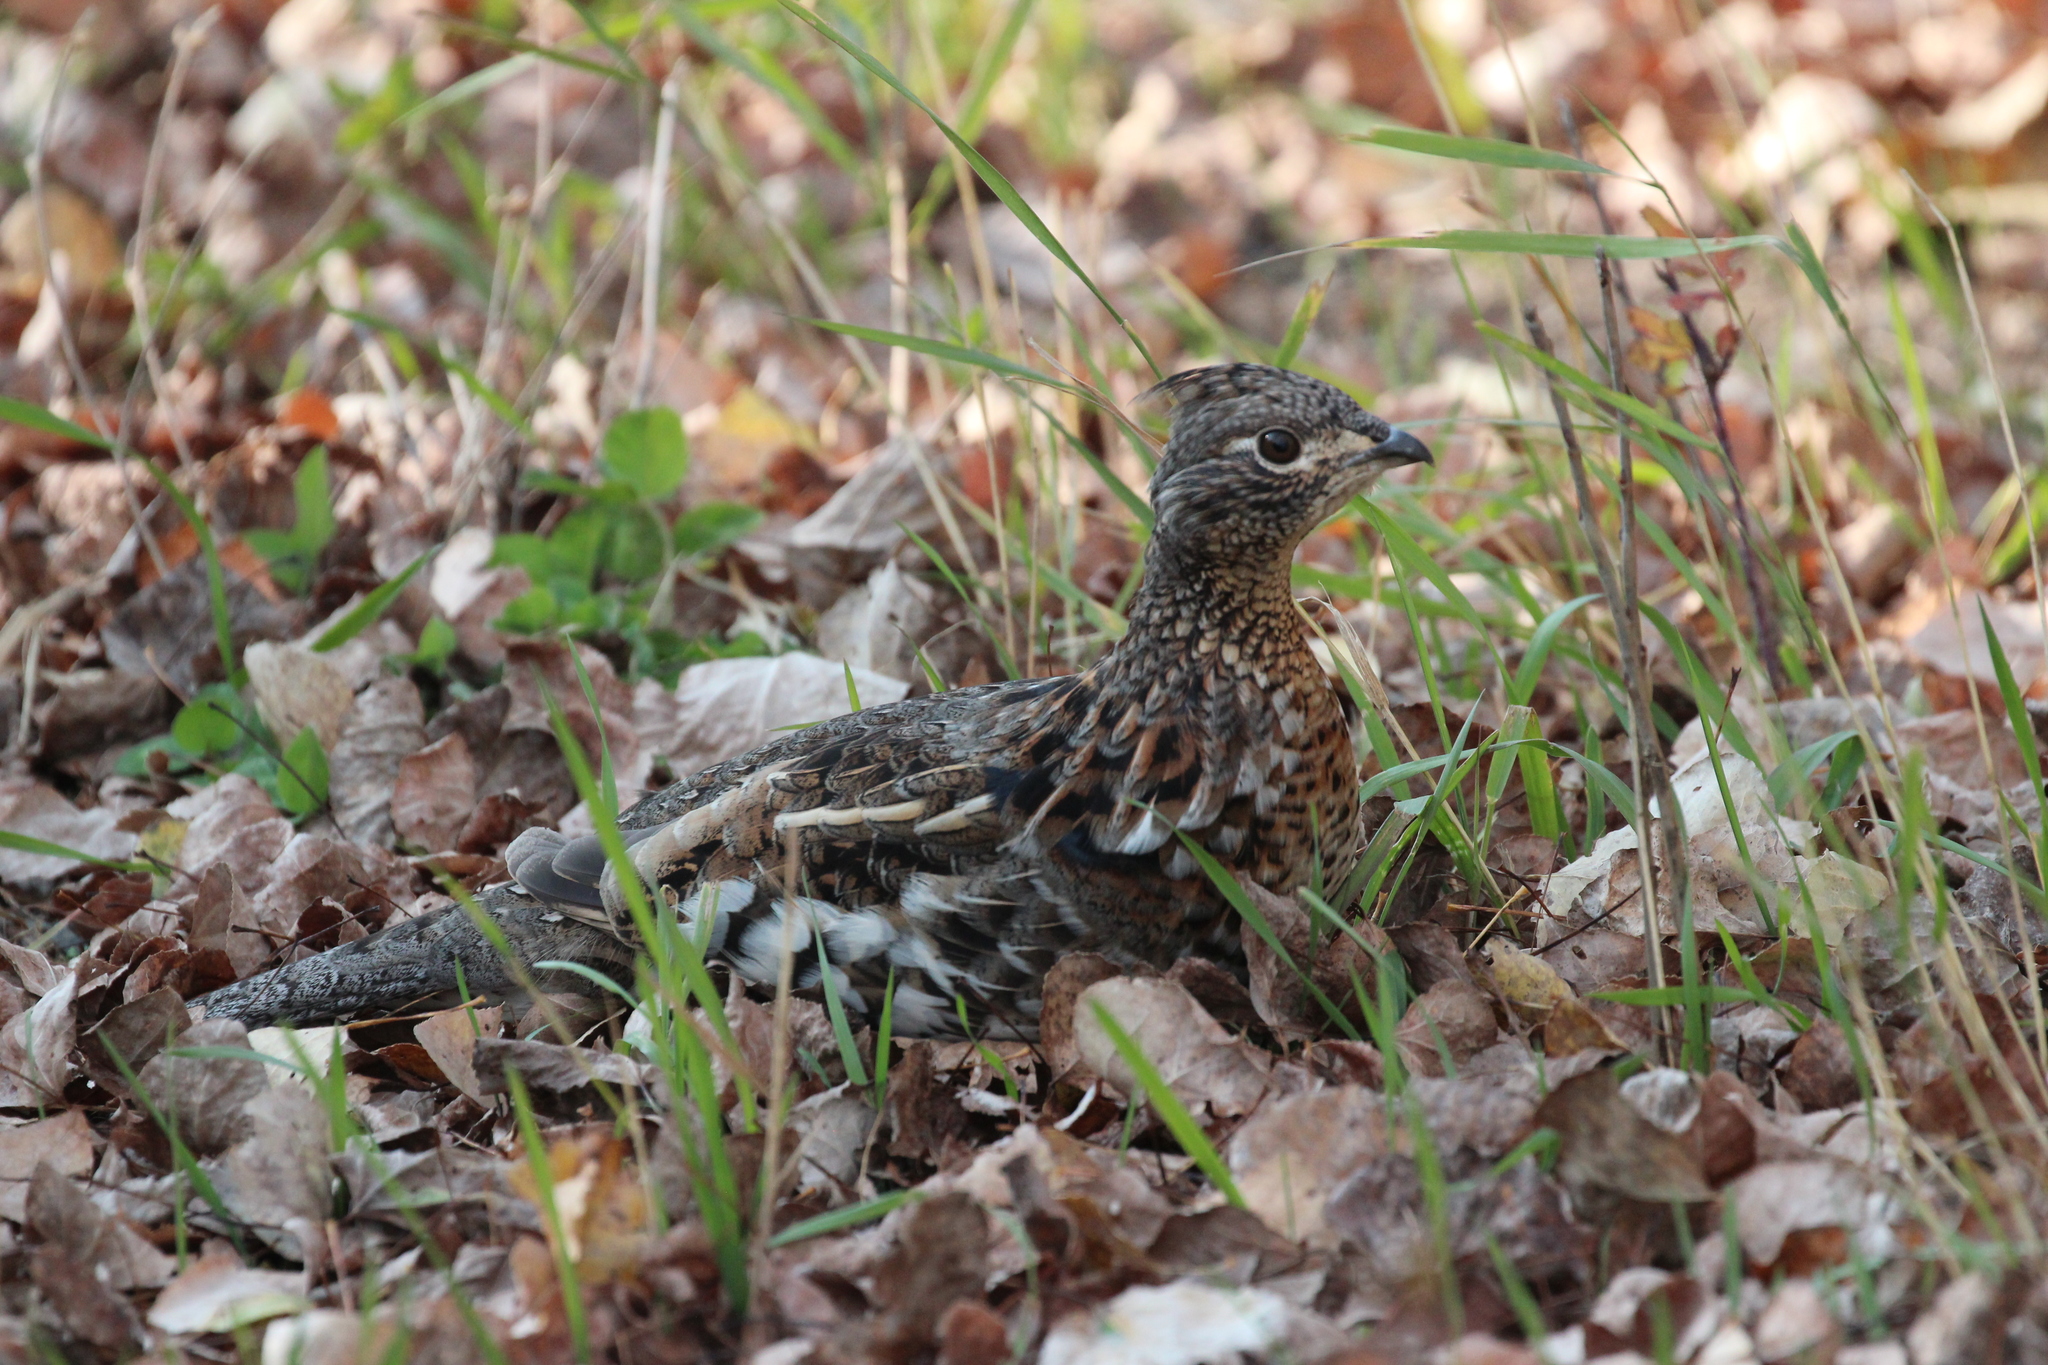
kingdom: Animalia
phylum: Chordata
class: Aves
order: Galliformes
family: Phasianidae
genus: Bonasa
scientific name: Bonasa umbellus
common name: Ruffed grouse
